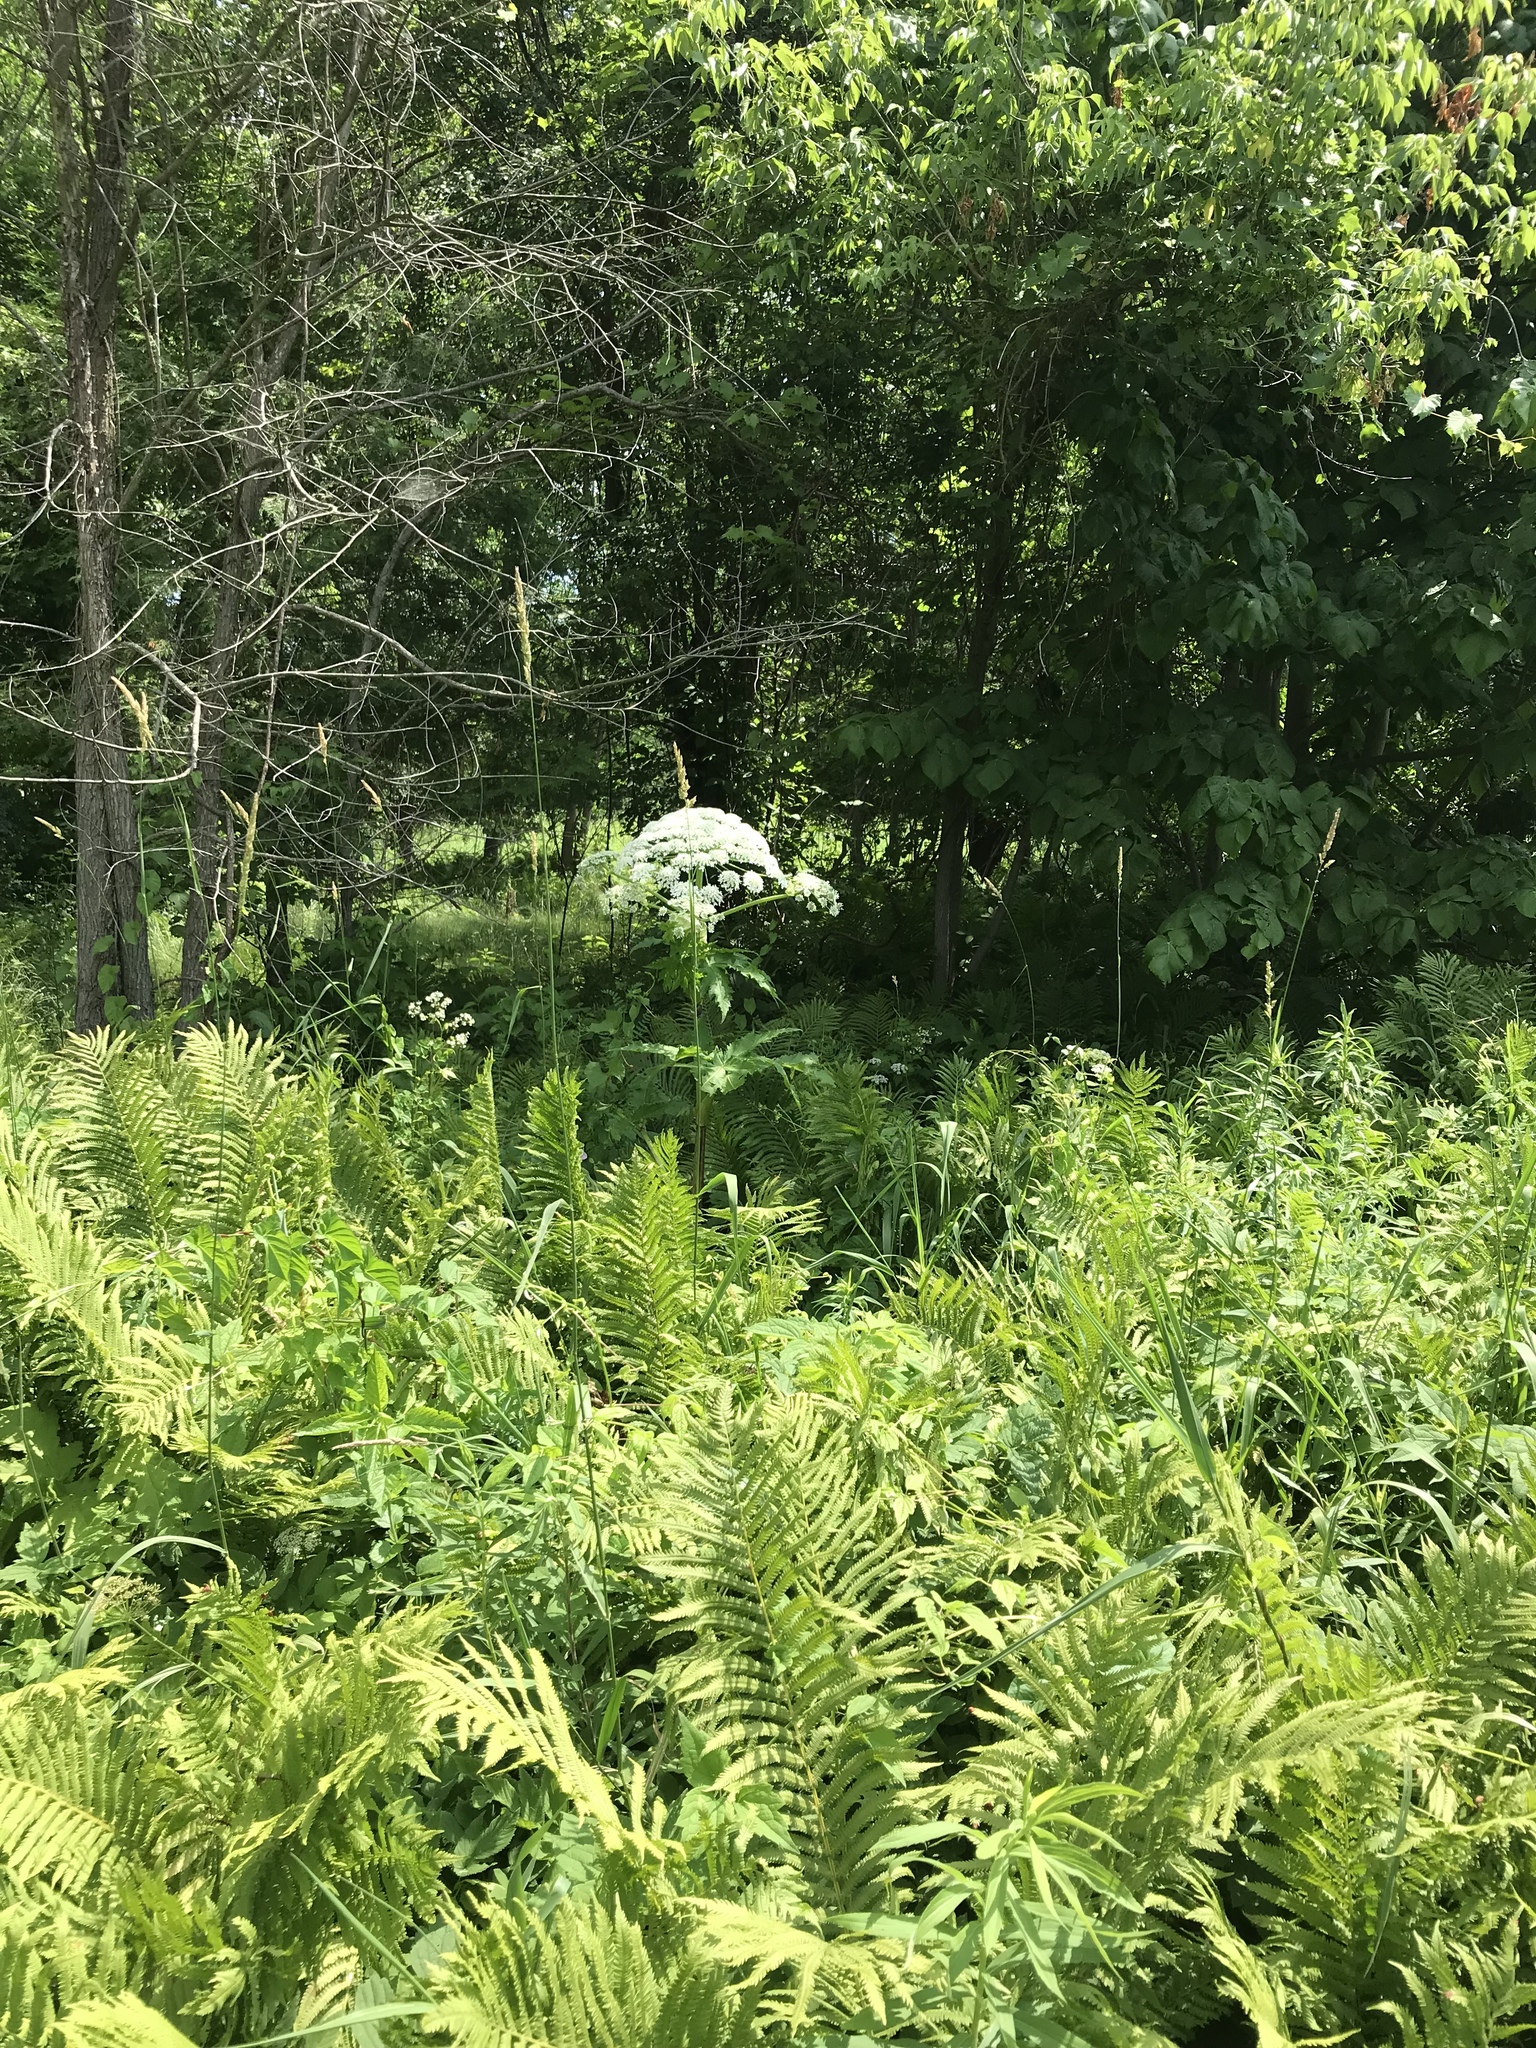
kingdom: Plantae
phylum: Tracheophyta
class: Magnoliopsida
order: Apiales
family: Apiaceae
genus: Heracleum
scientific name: Heracleum mantegazzianum
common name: Giant hogweed
